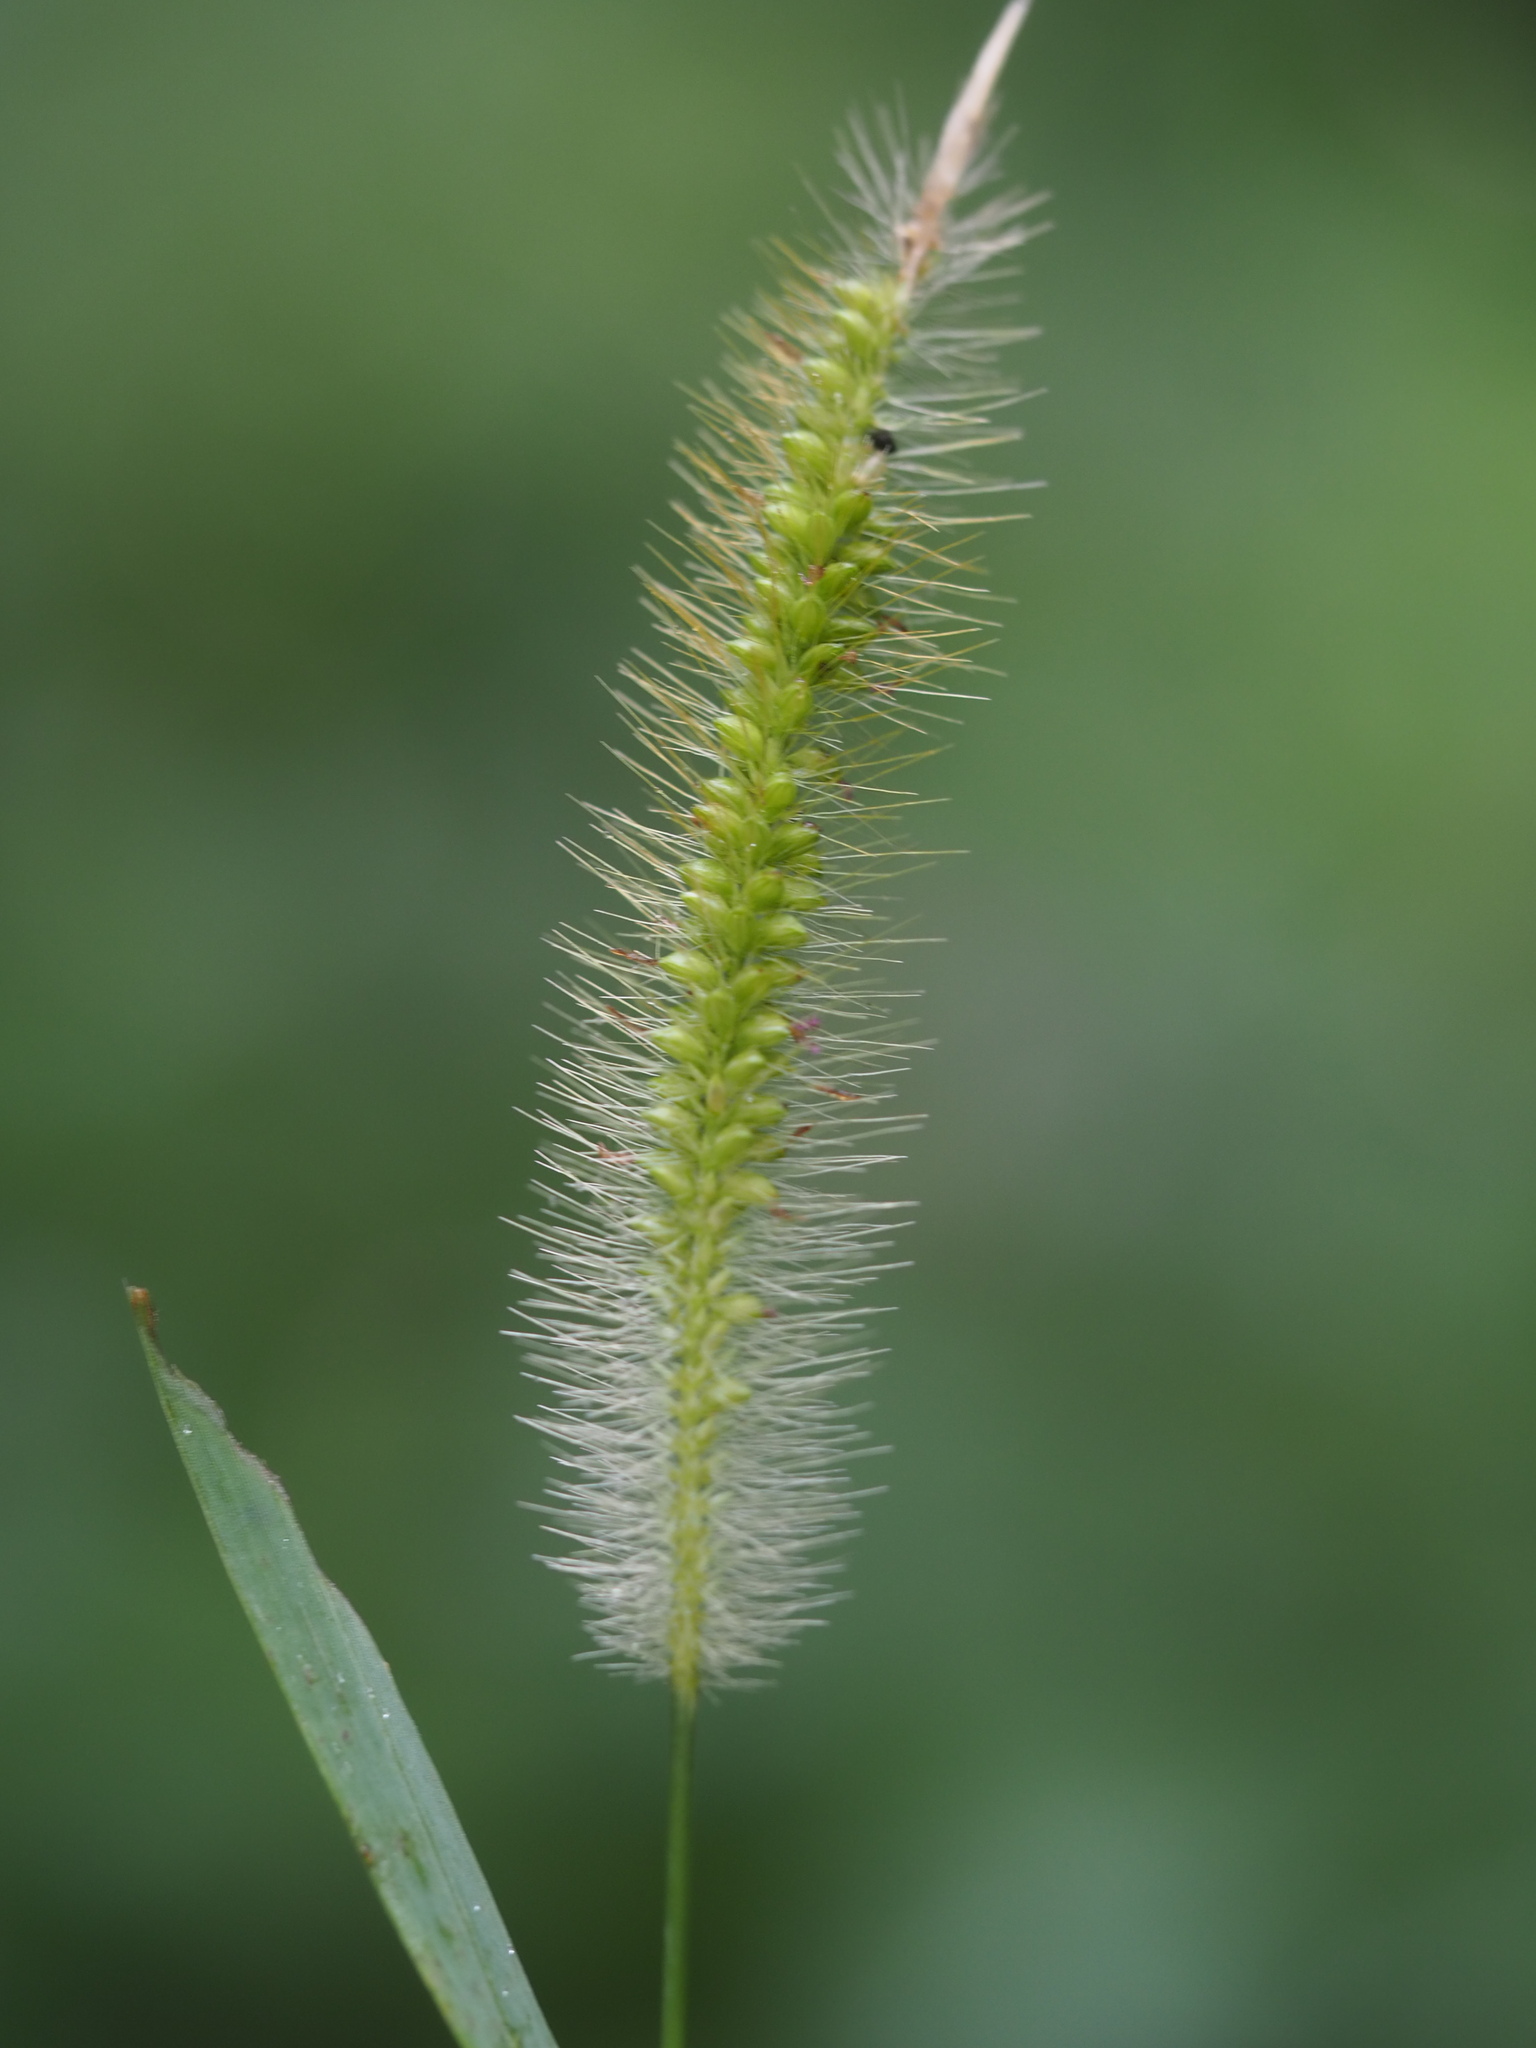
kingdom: Plantae
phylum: Tracheophyta
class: Liliopsida
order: Poales
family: Poaceae
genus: Setaria
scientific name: Setaria parviflora
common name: Knotroot bristle-grass
